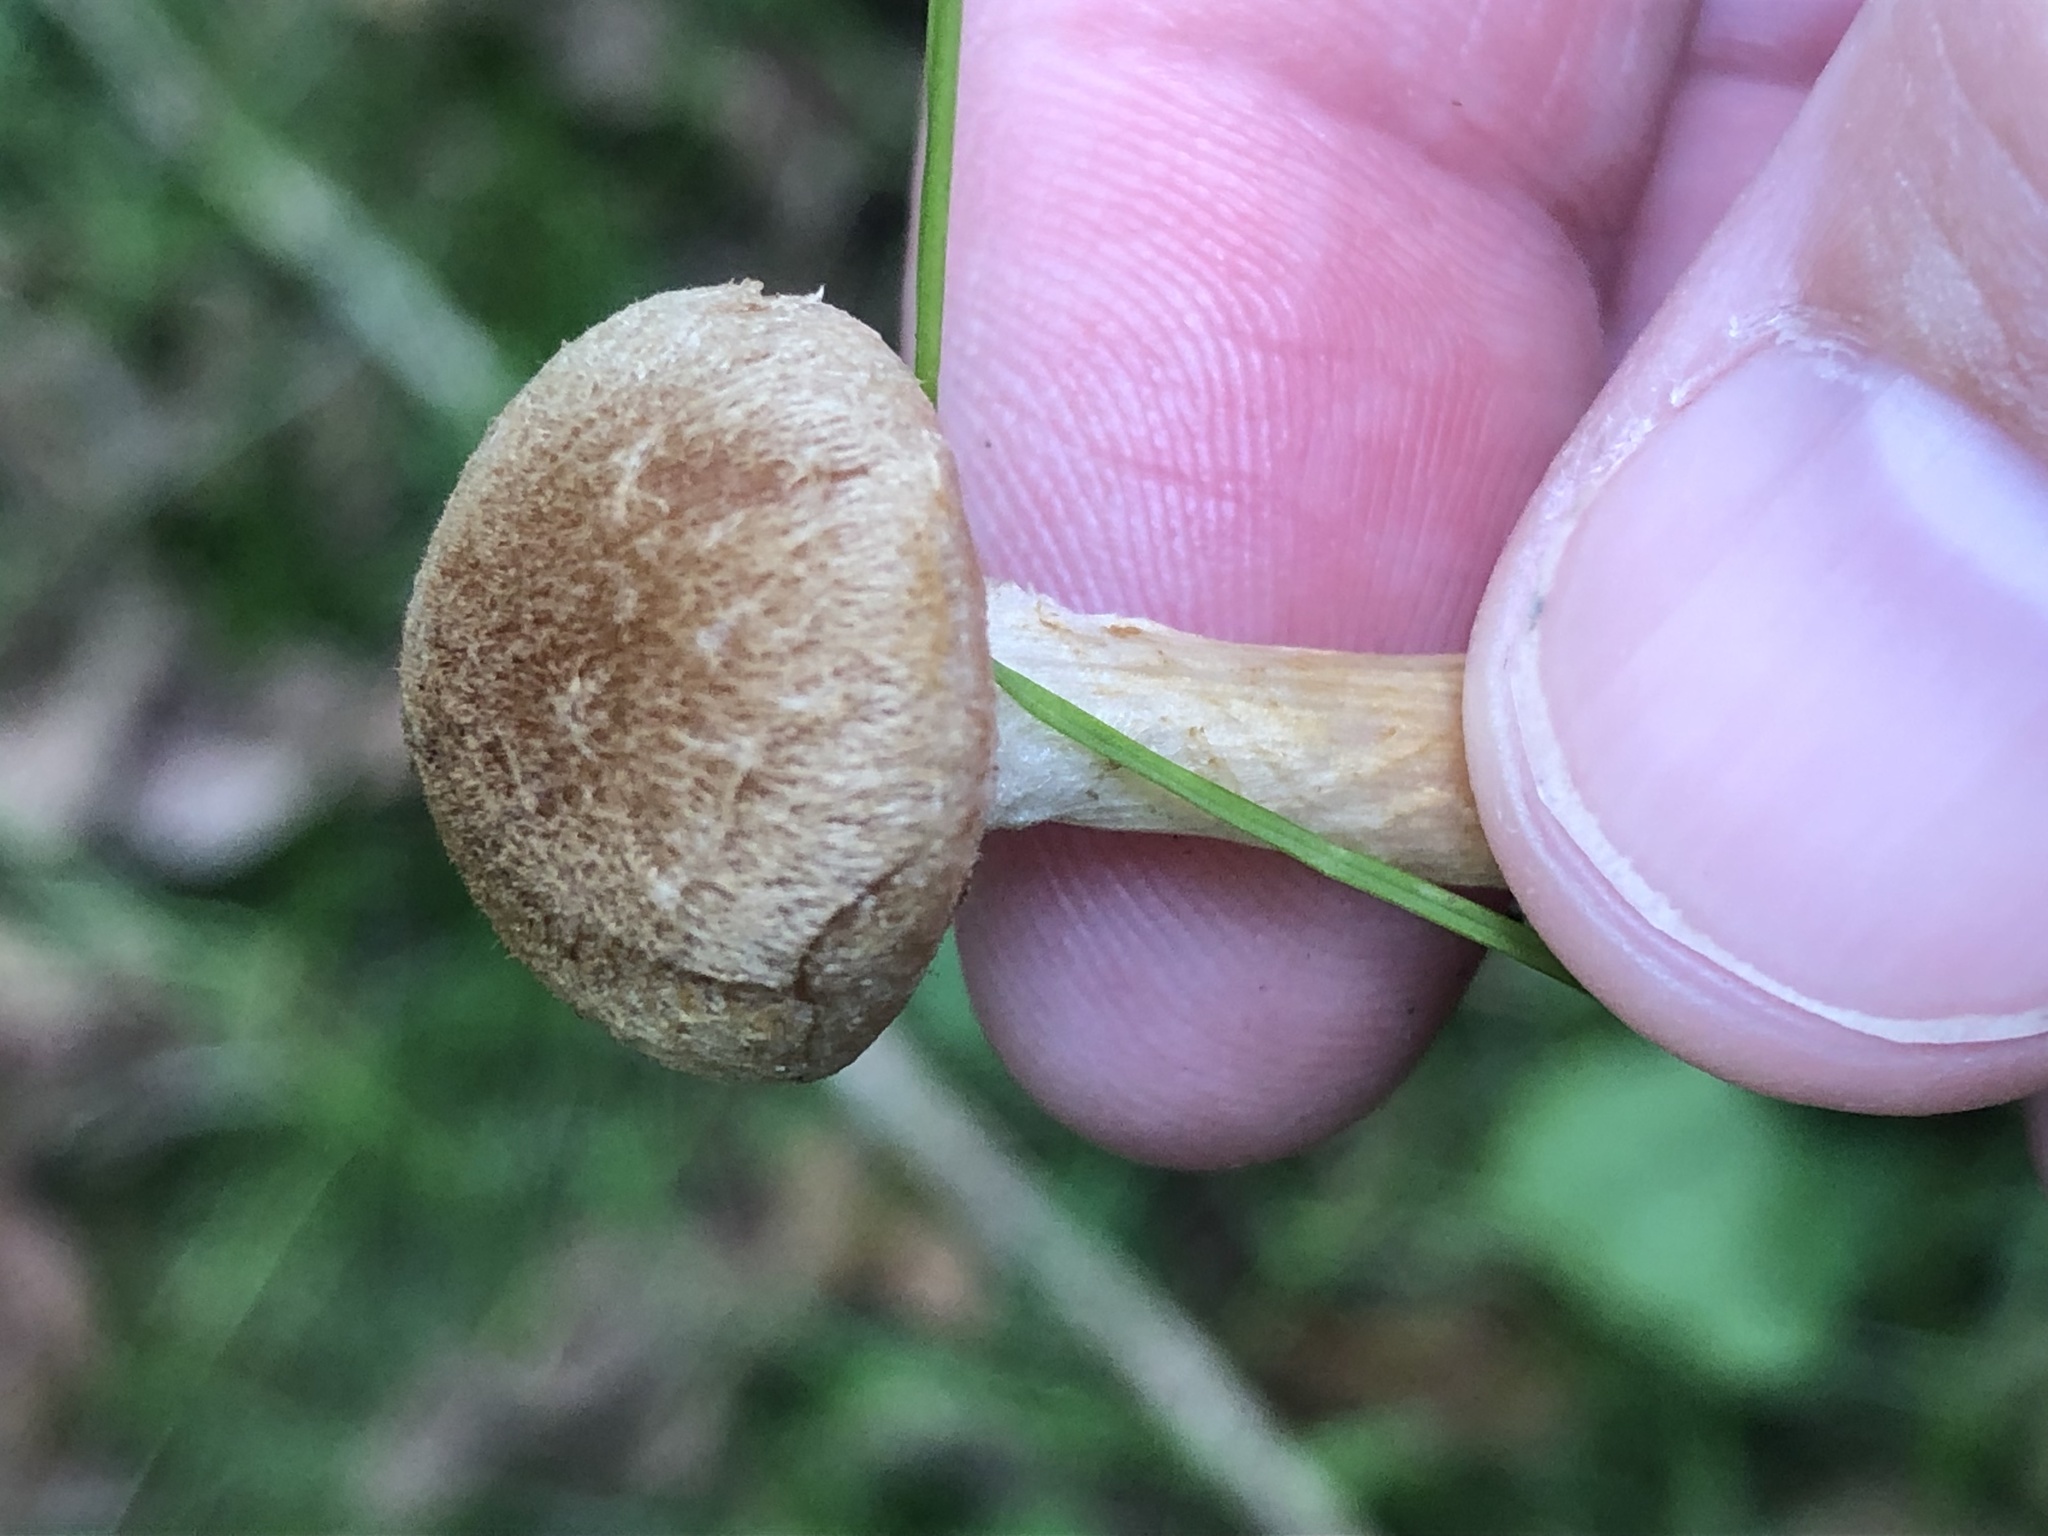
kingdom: Fungi
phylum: Basidiomycota
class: Agaricomycetes
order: Agaricales
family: Psathyrellaceae
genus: Lacrymaria
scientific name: Lacrymaria lacrymabunda
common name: Weeping widow
